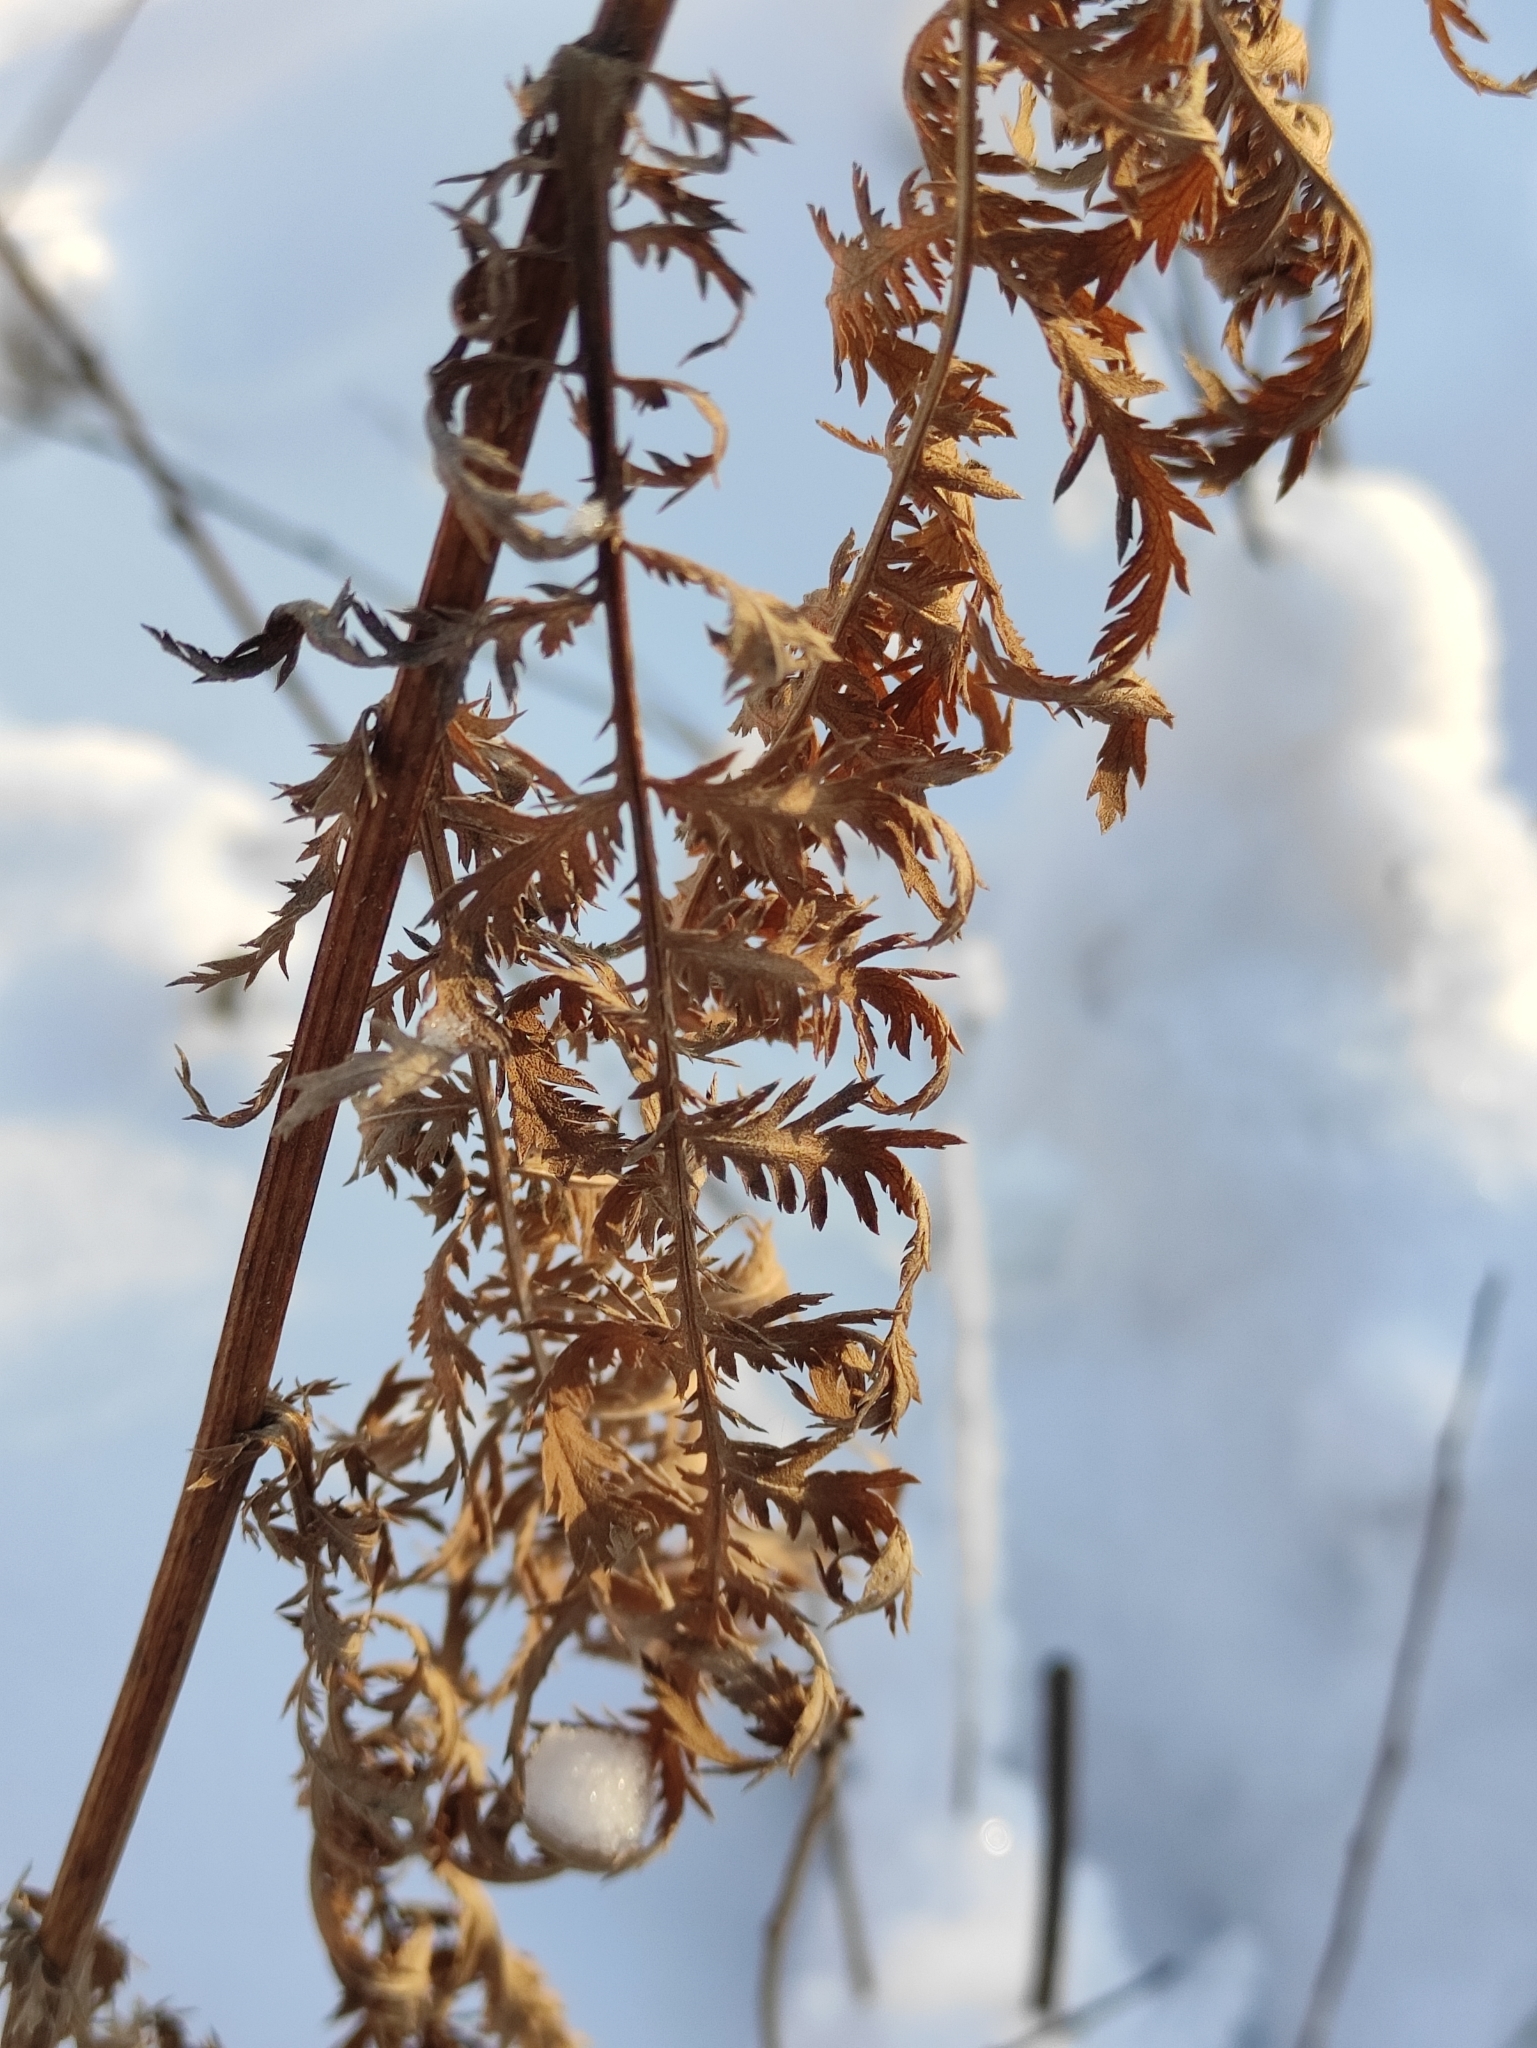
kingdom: Plantae
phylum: Tracheophyta
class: Magnoliopsida
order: Asterales
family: Asteraceae
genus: Tanacetum
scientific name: Tanacetum vulgare
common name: Common tansy
